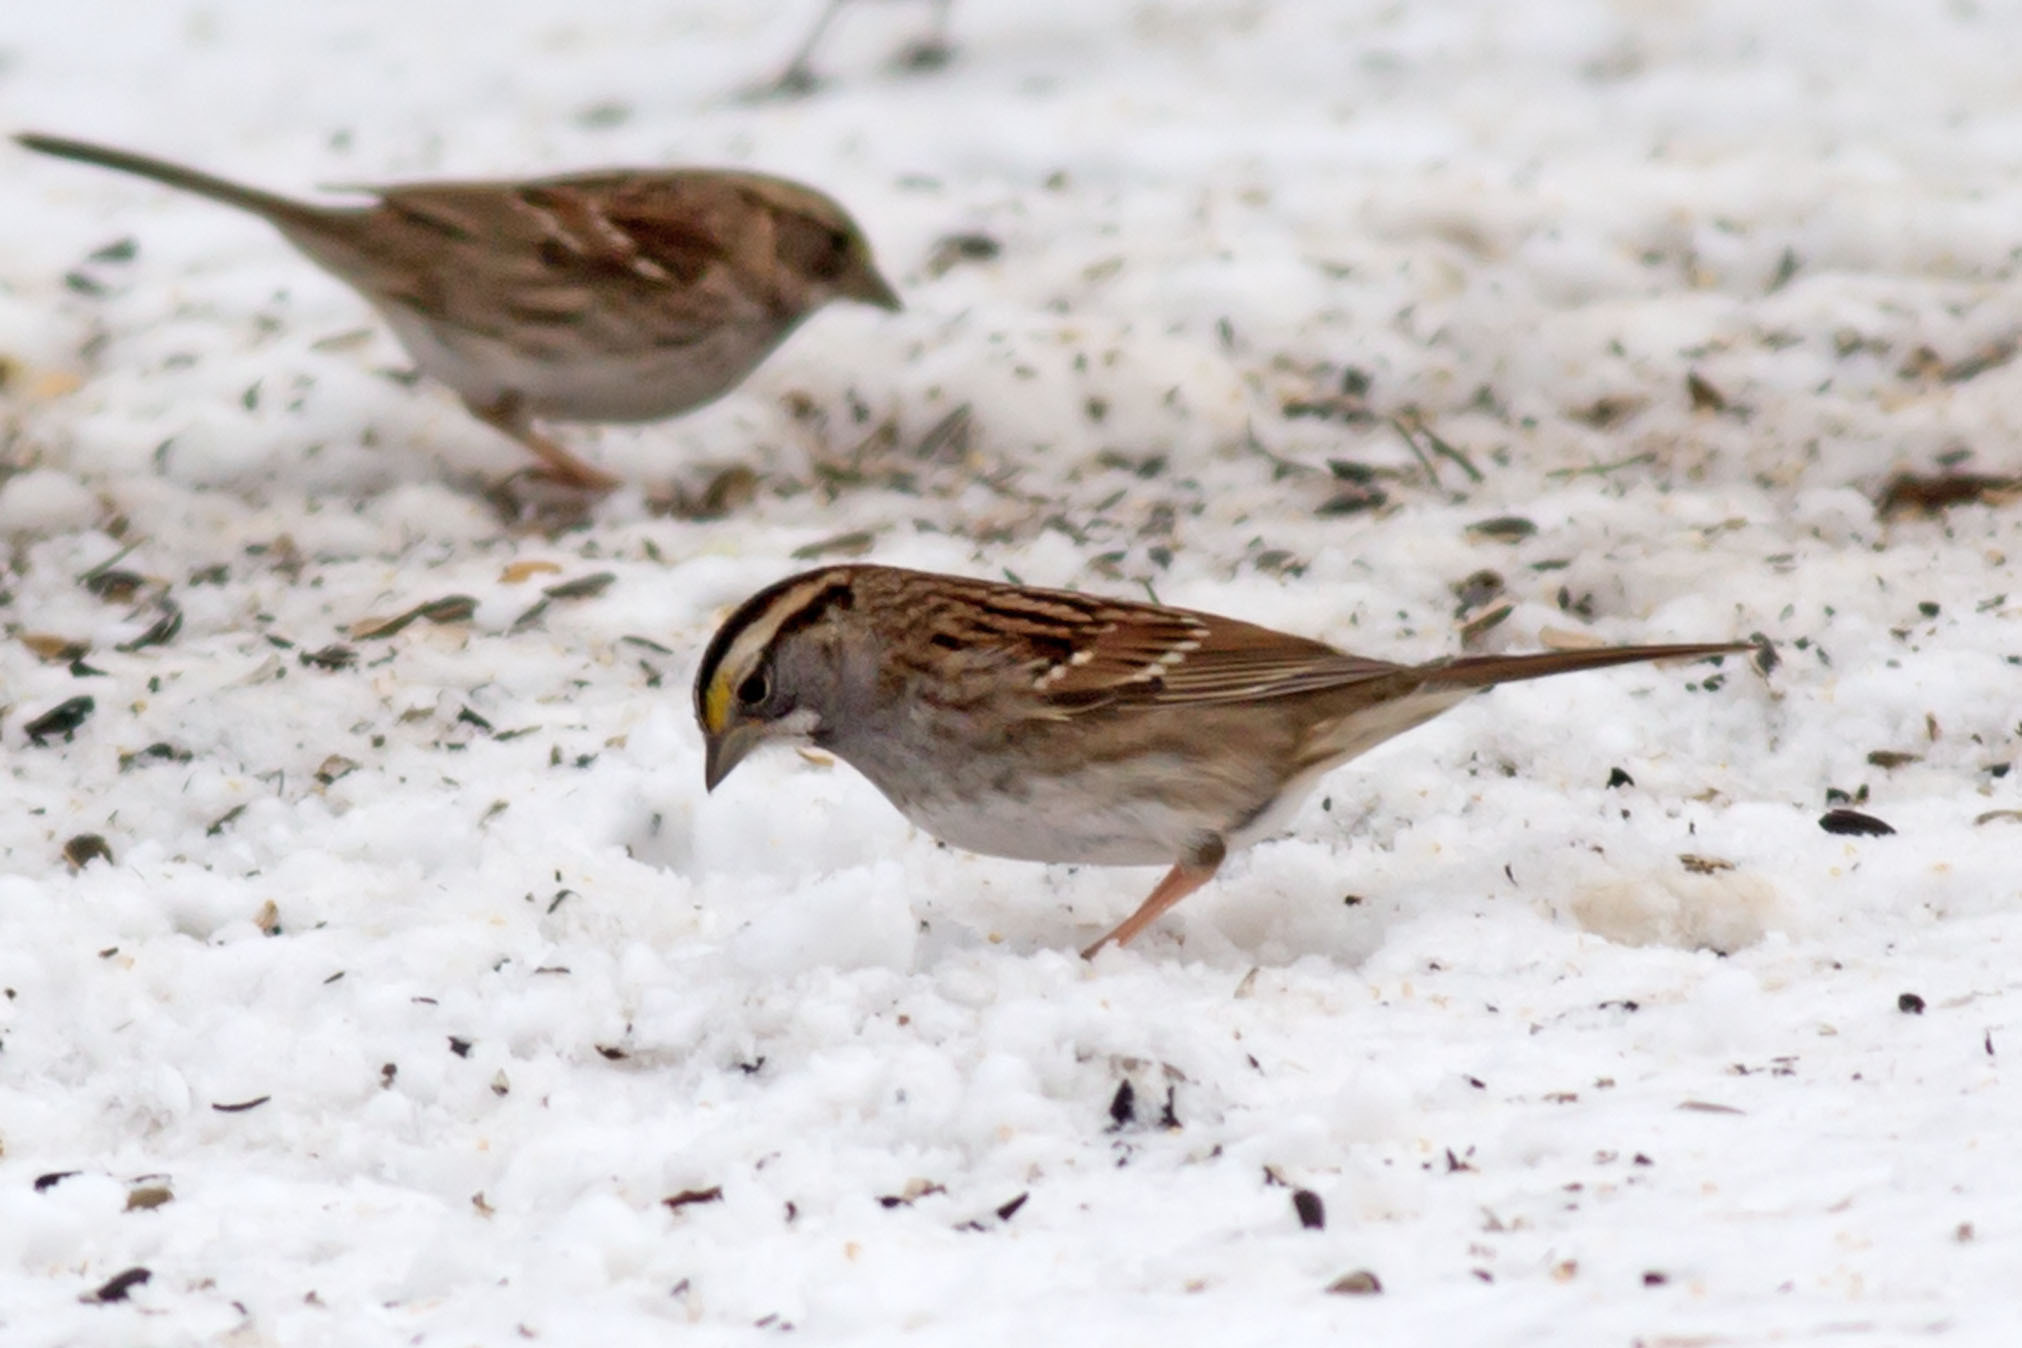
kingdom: Animalia
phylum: Chordata
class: Aves
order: Passeriformes
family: Passerellidae
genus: Zonotrichia
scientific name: Zonotrichia albicollis
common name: White-throated sparrow
